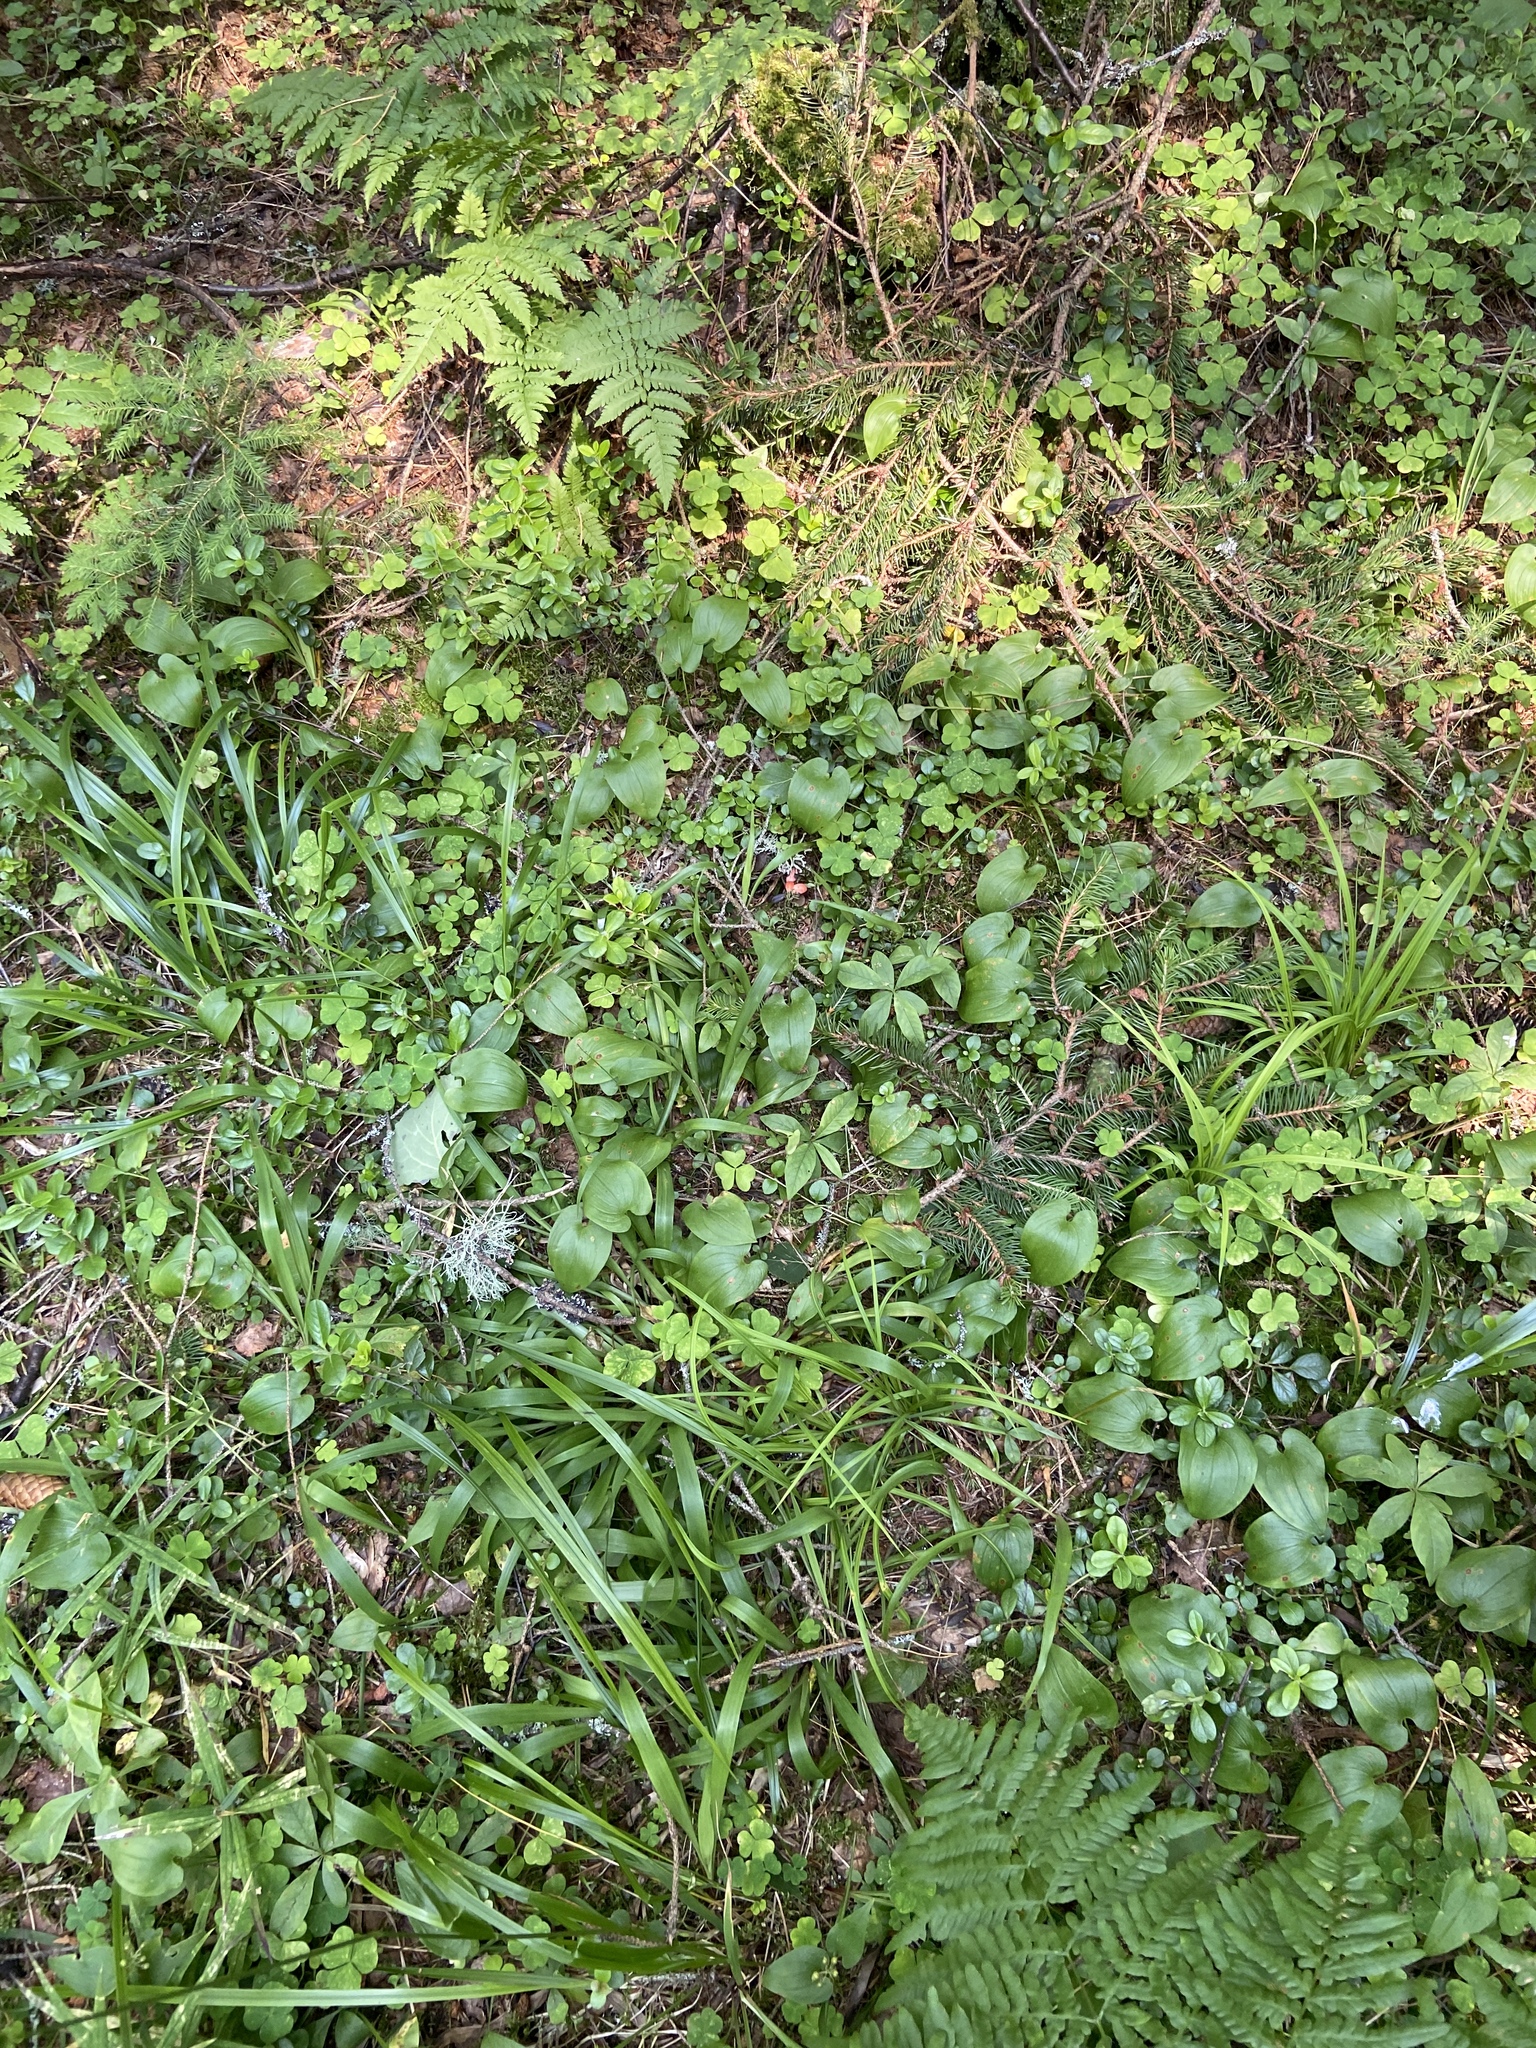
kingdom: Plantae
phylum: Tracheophyta
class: Liliopsida
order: Asparagales
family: Asparagaceae
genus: Maianthemum
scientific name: Maianthemum bifolium
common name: May lily
